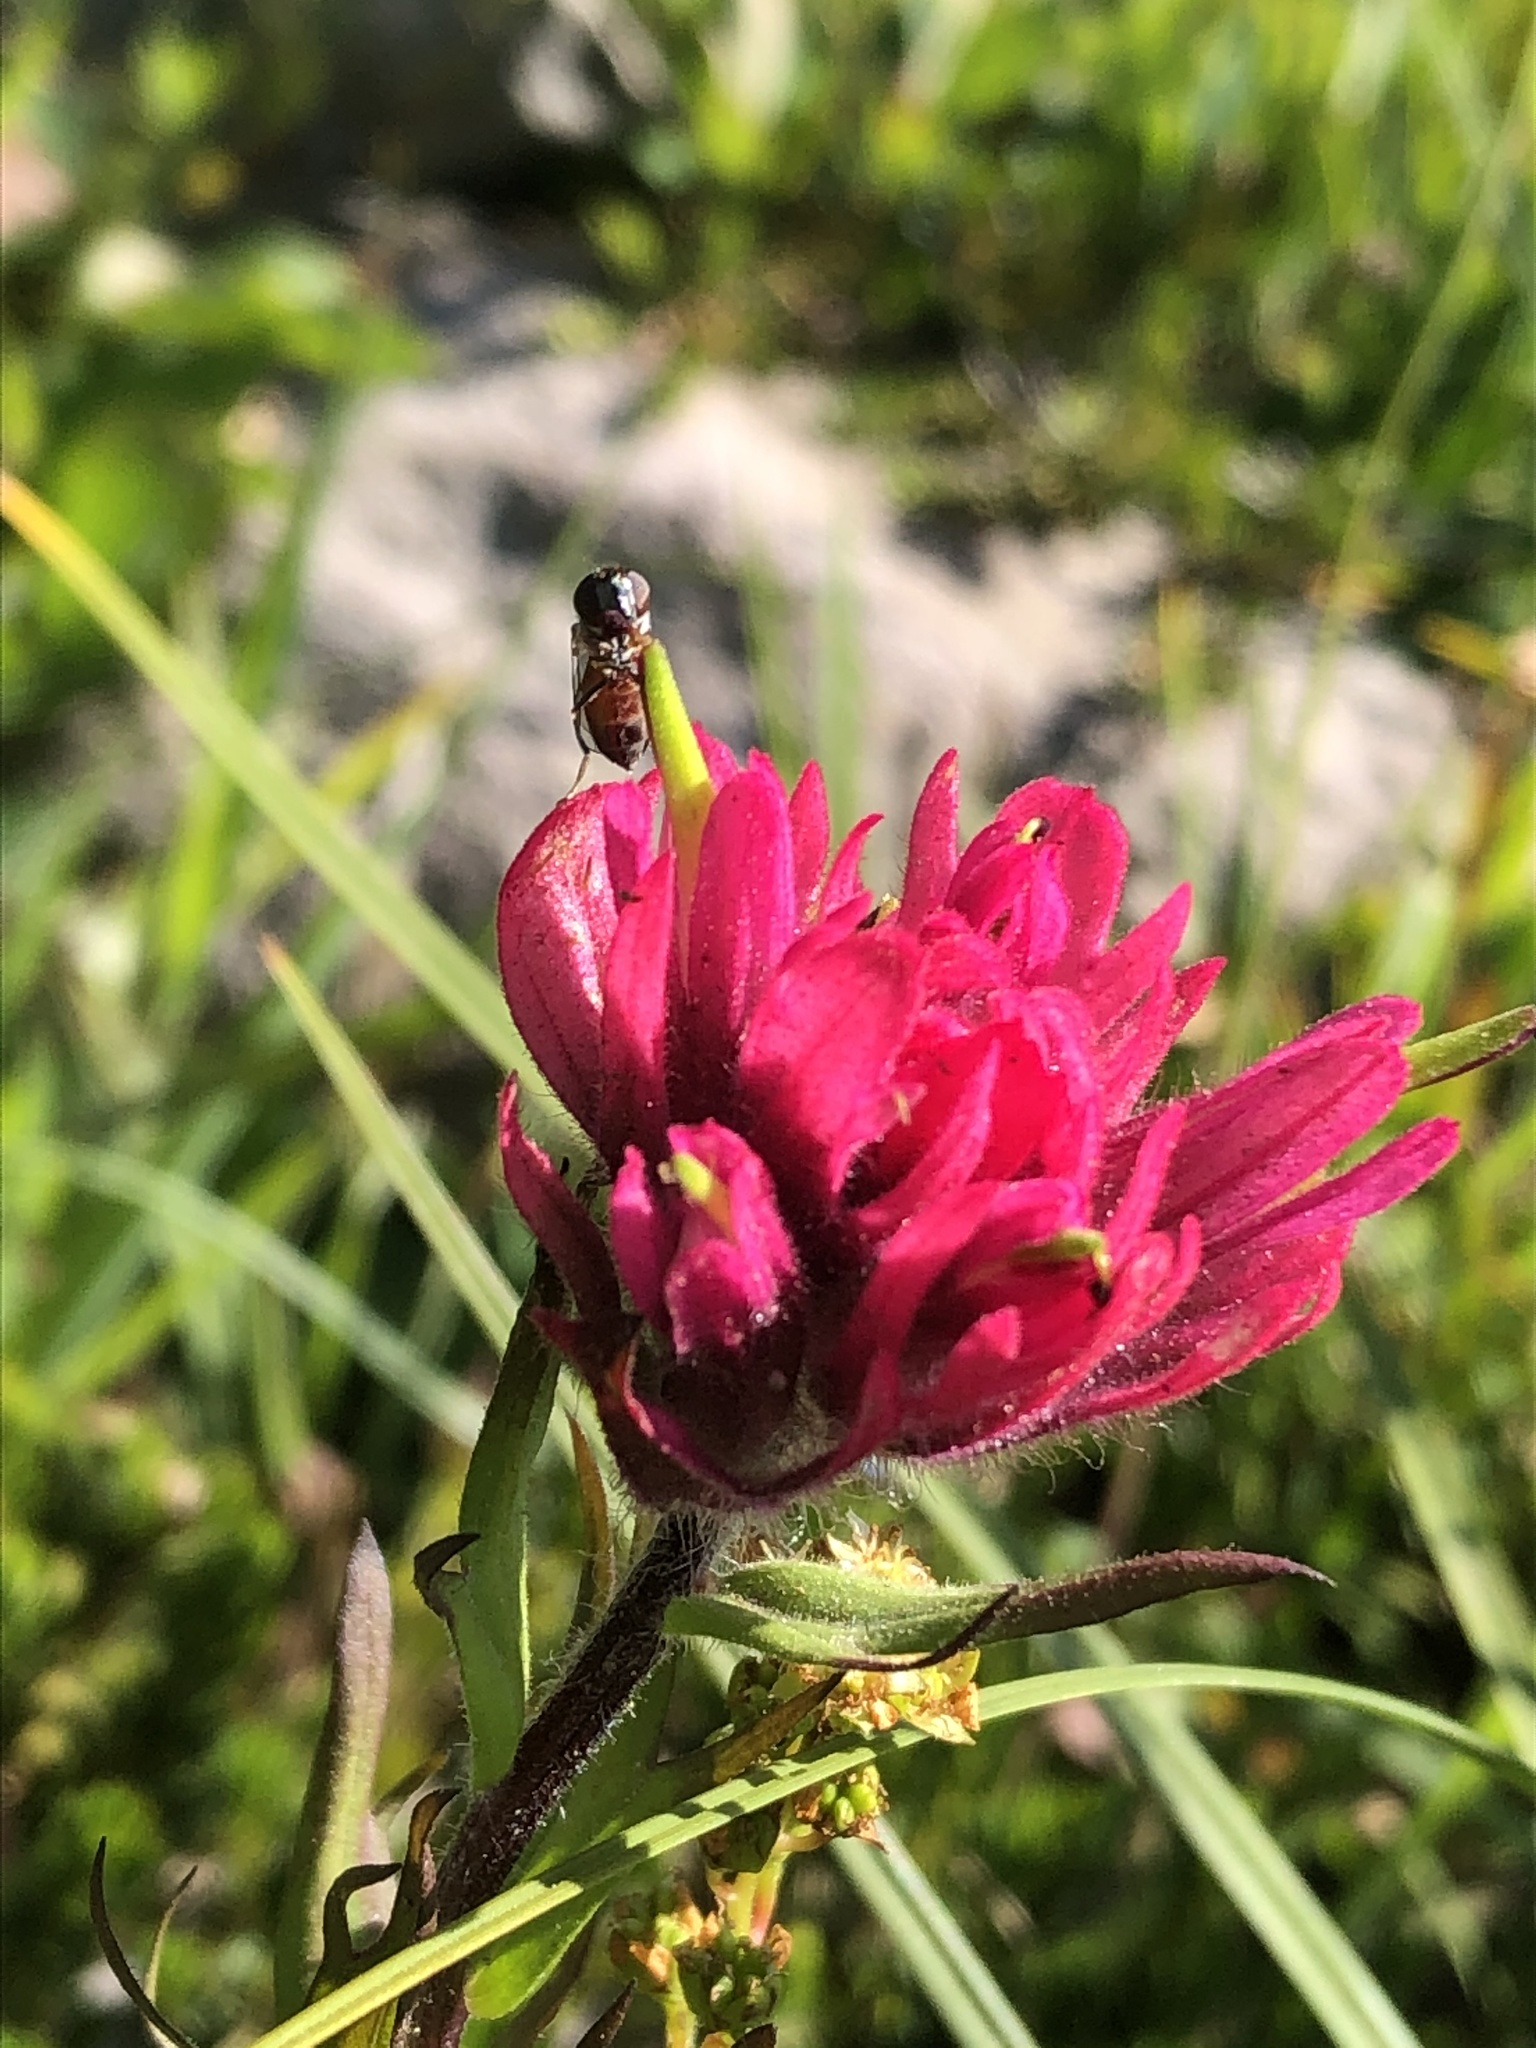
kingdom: Plantae
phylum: Tracheophyta
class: Magnoliopsida
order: Lamiales
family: Orobanchaceae
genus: Castilleja
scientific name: Castilleja parviflora
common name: Mountain paintbrush
